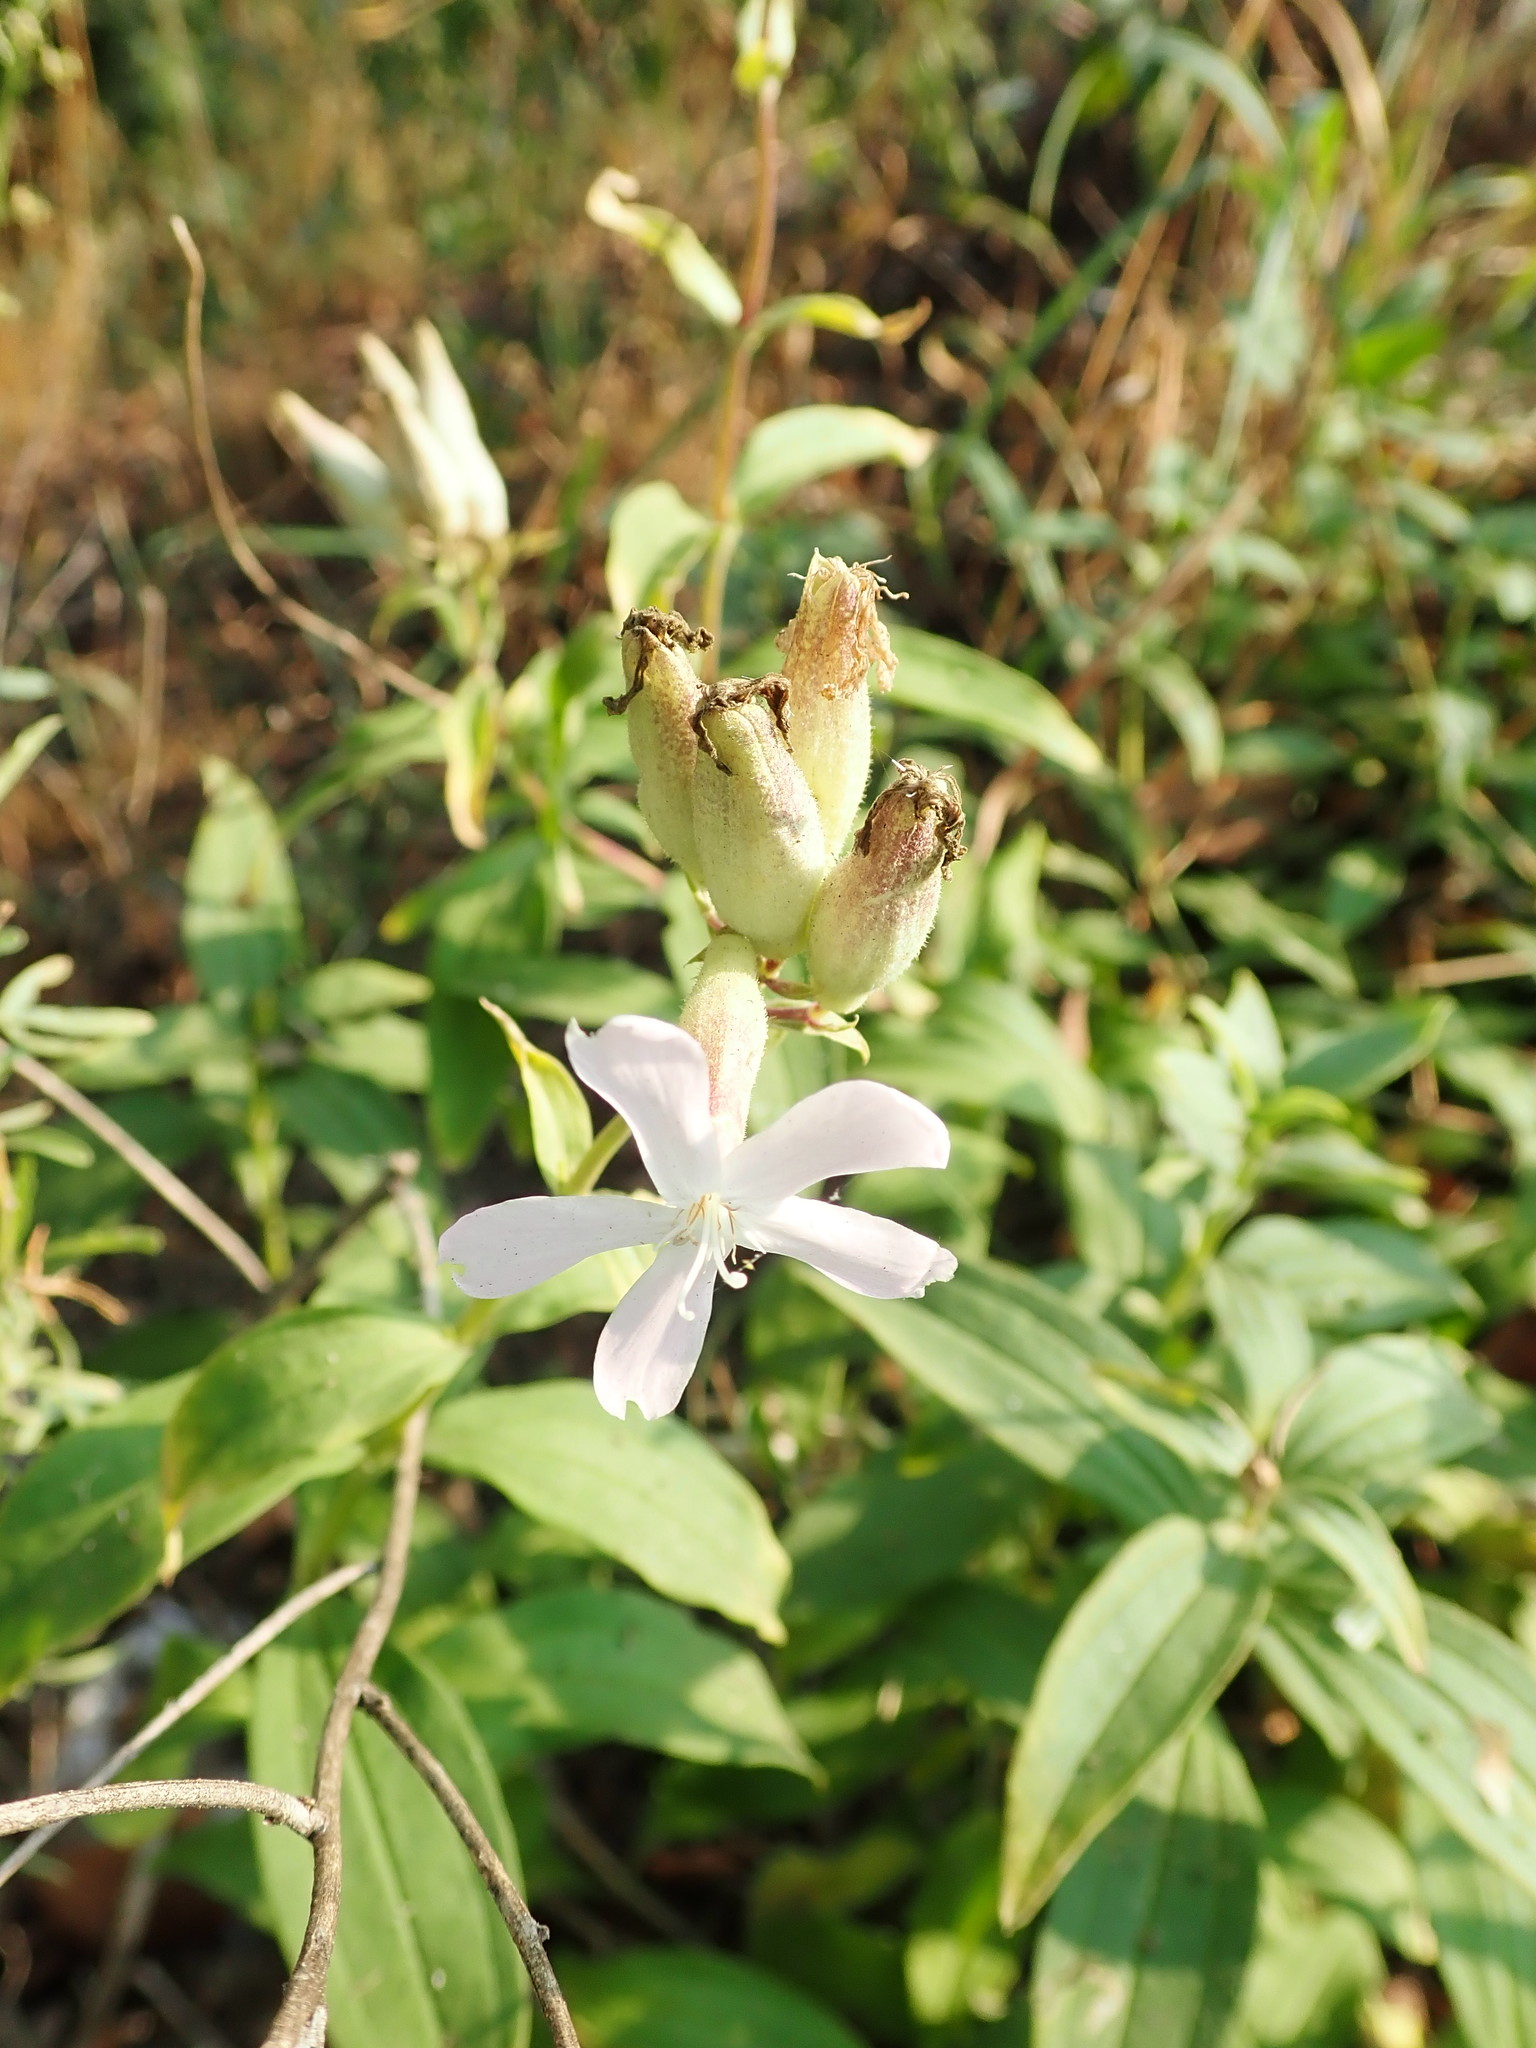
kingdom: Plantae
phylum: Tracheophyta
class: Magnoliopsida
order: Caryophyllales
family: Caryophyllaceae
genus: Saponaria
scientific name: Saponaria officinalis
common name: Soapwort
